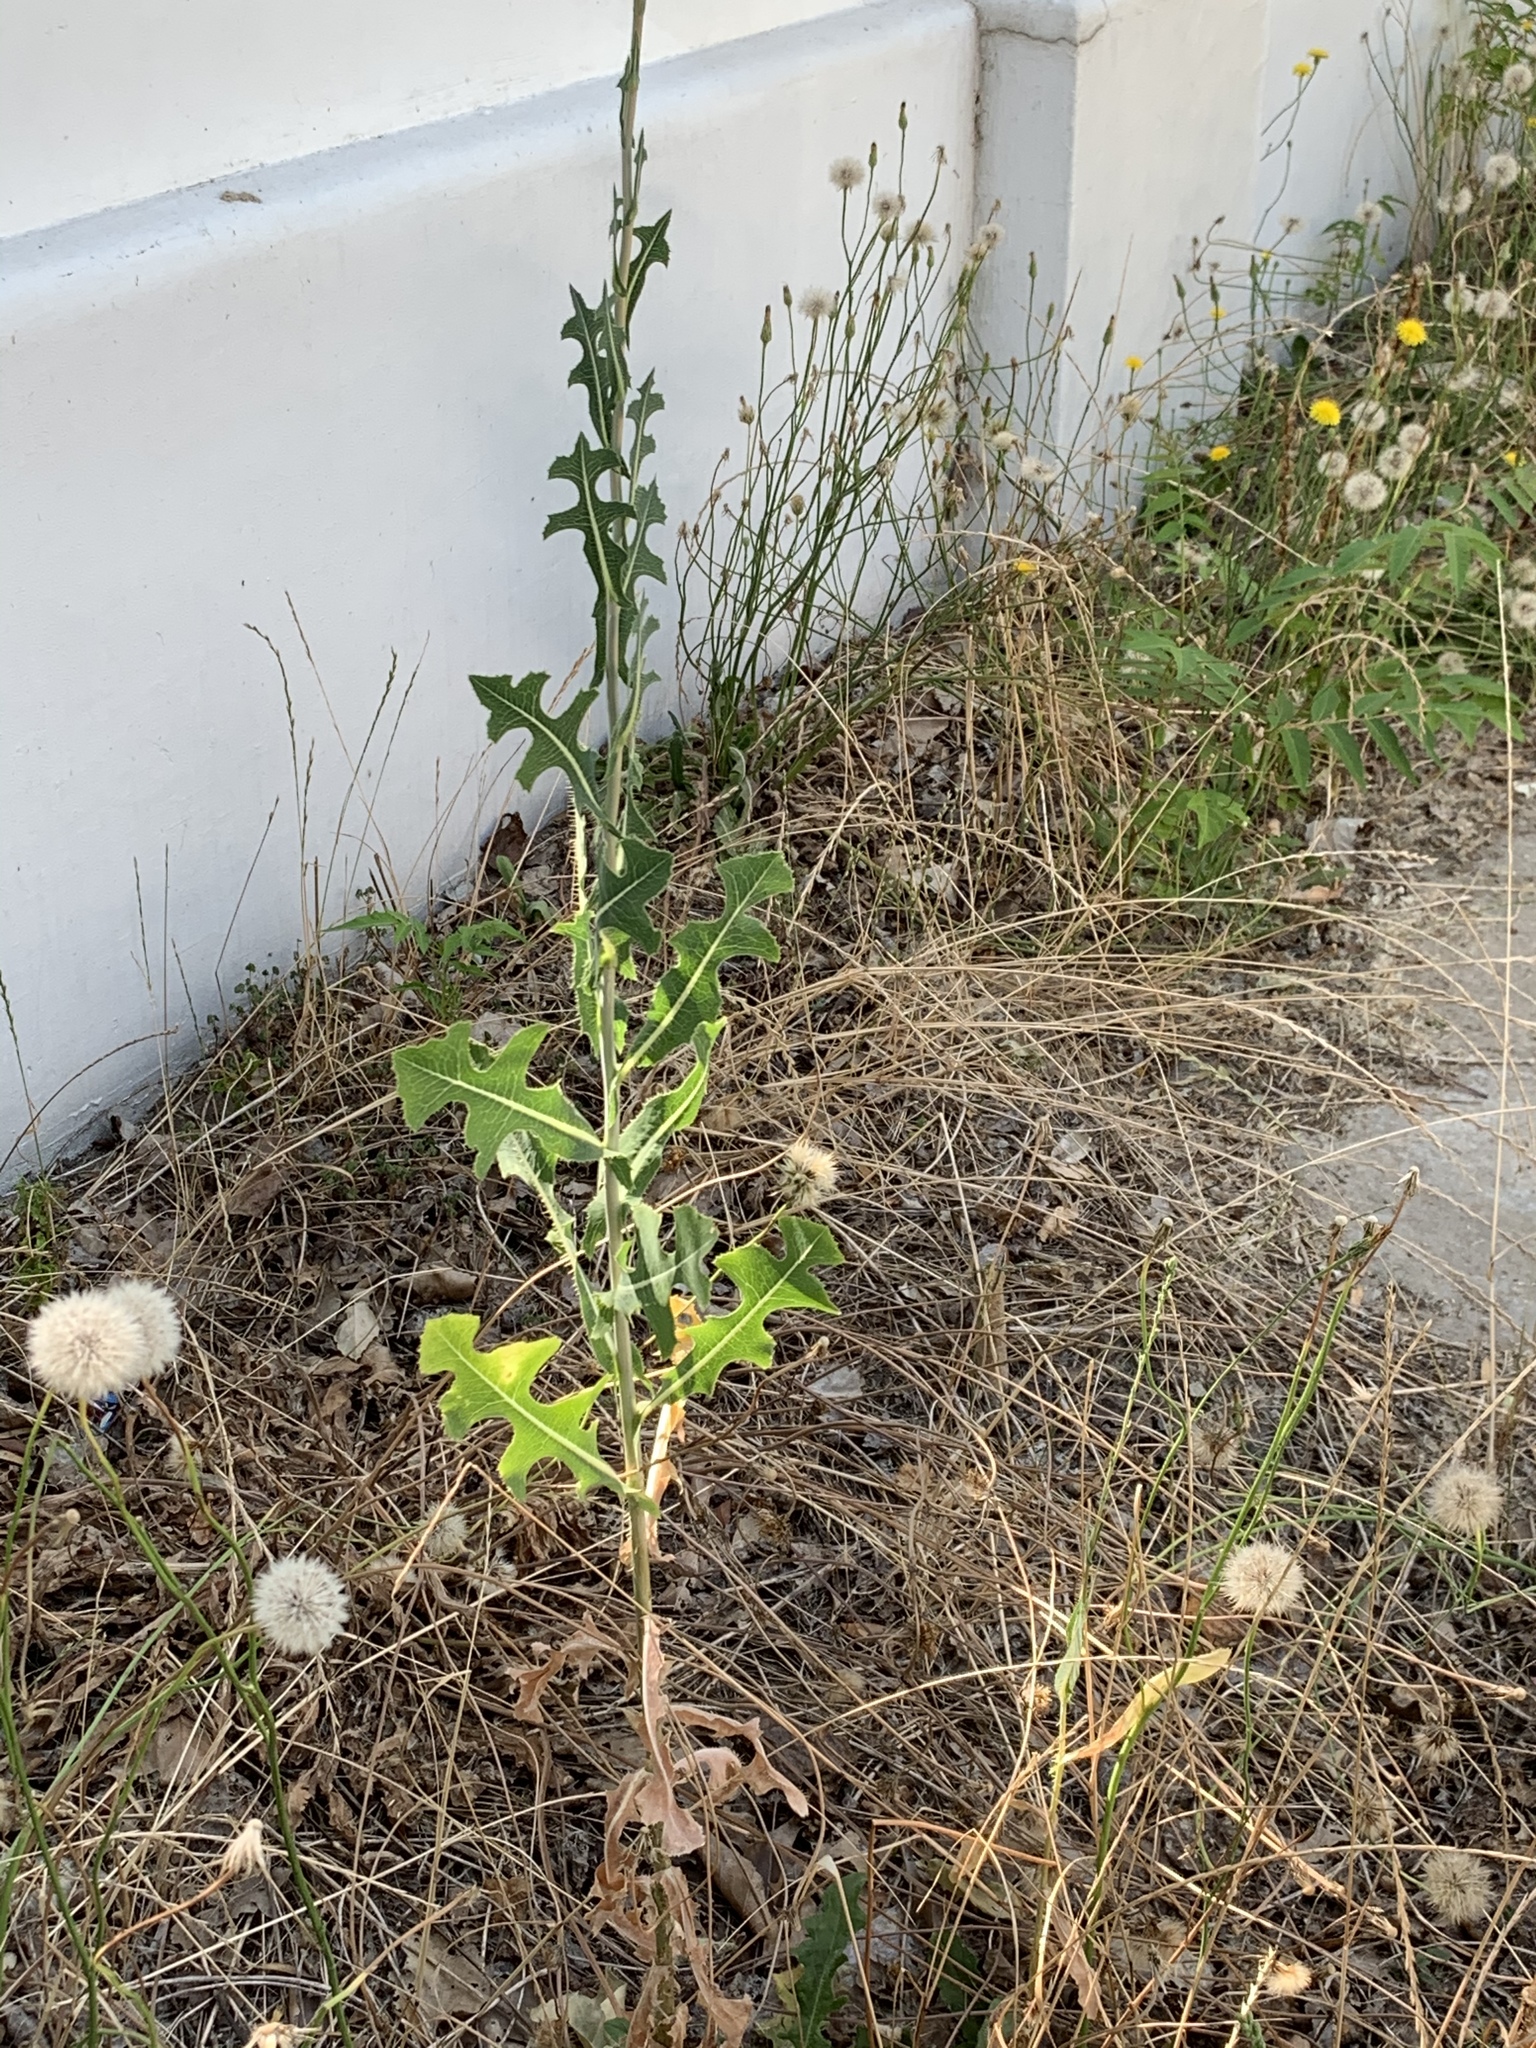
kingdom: Plantae
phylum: Tracheophyta
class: Magnoliopsida
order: Asterales
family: Asteraceae
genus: Lactuca
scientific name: Lactuca serriola
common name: Prickly lettuce
